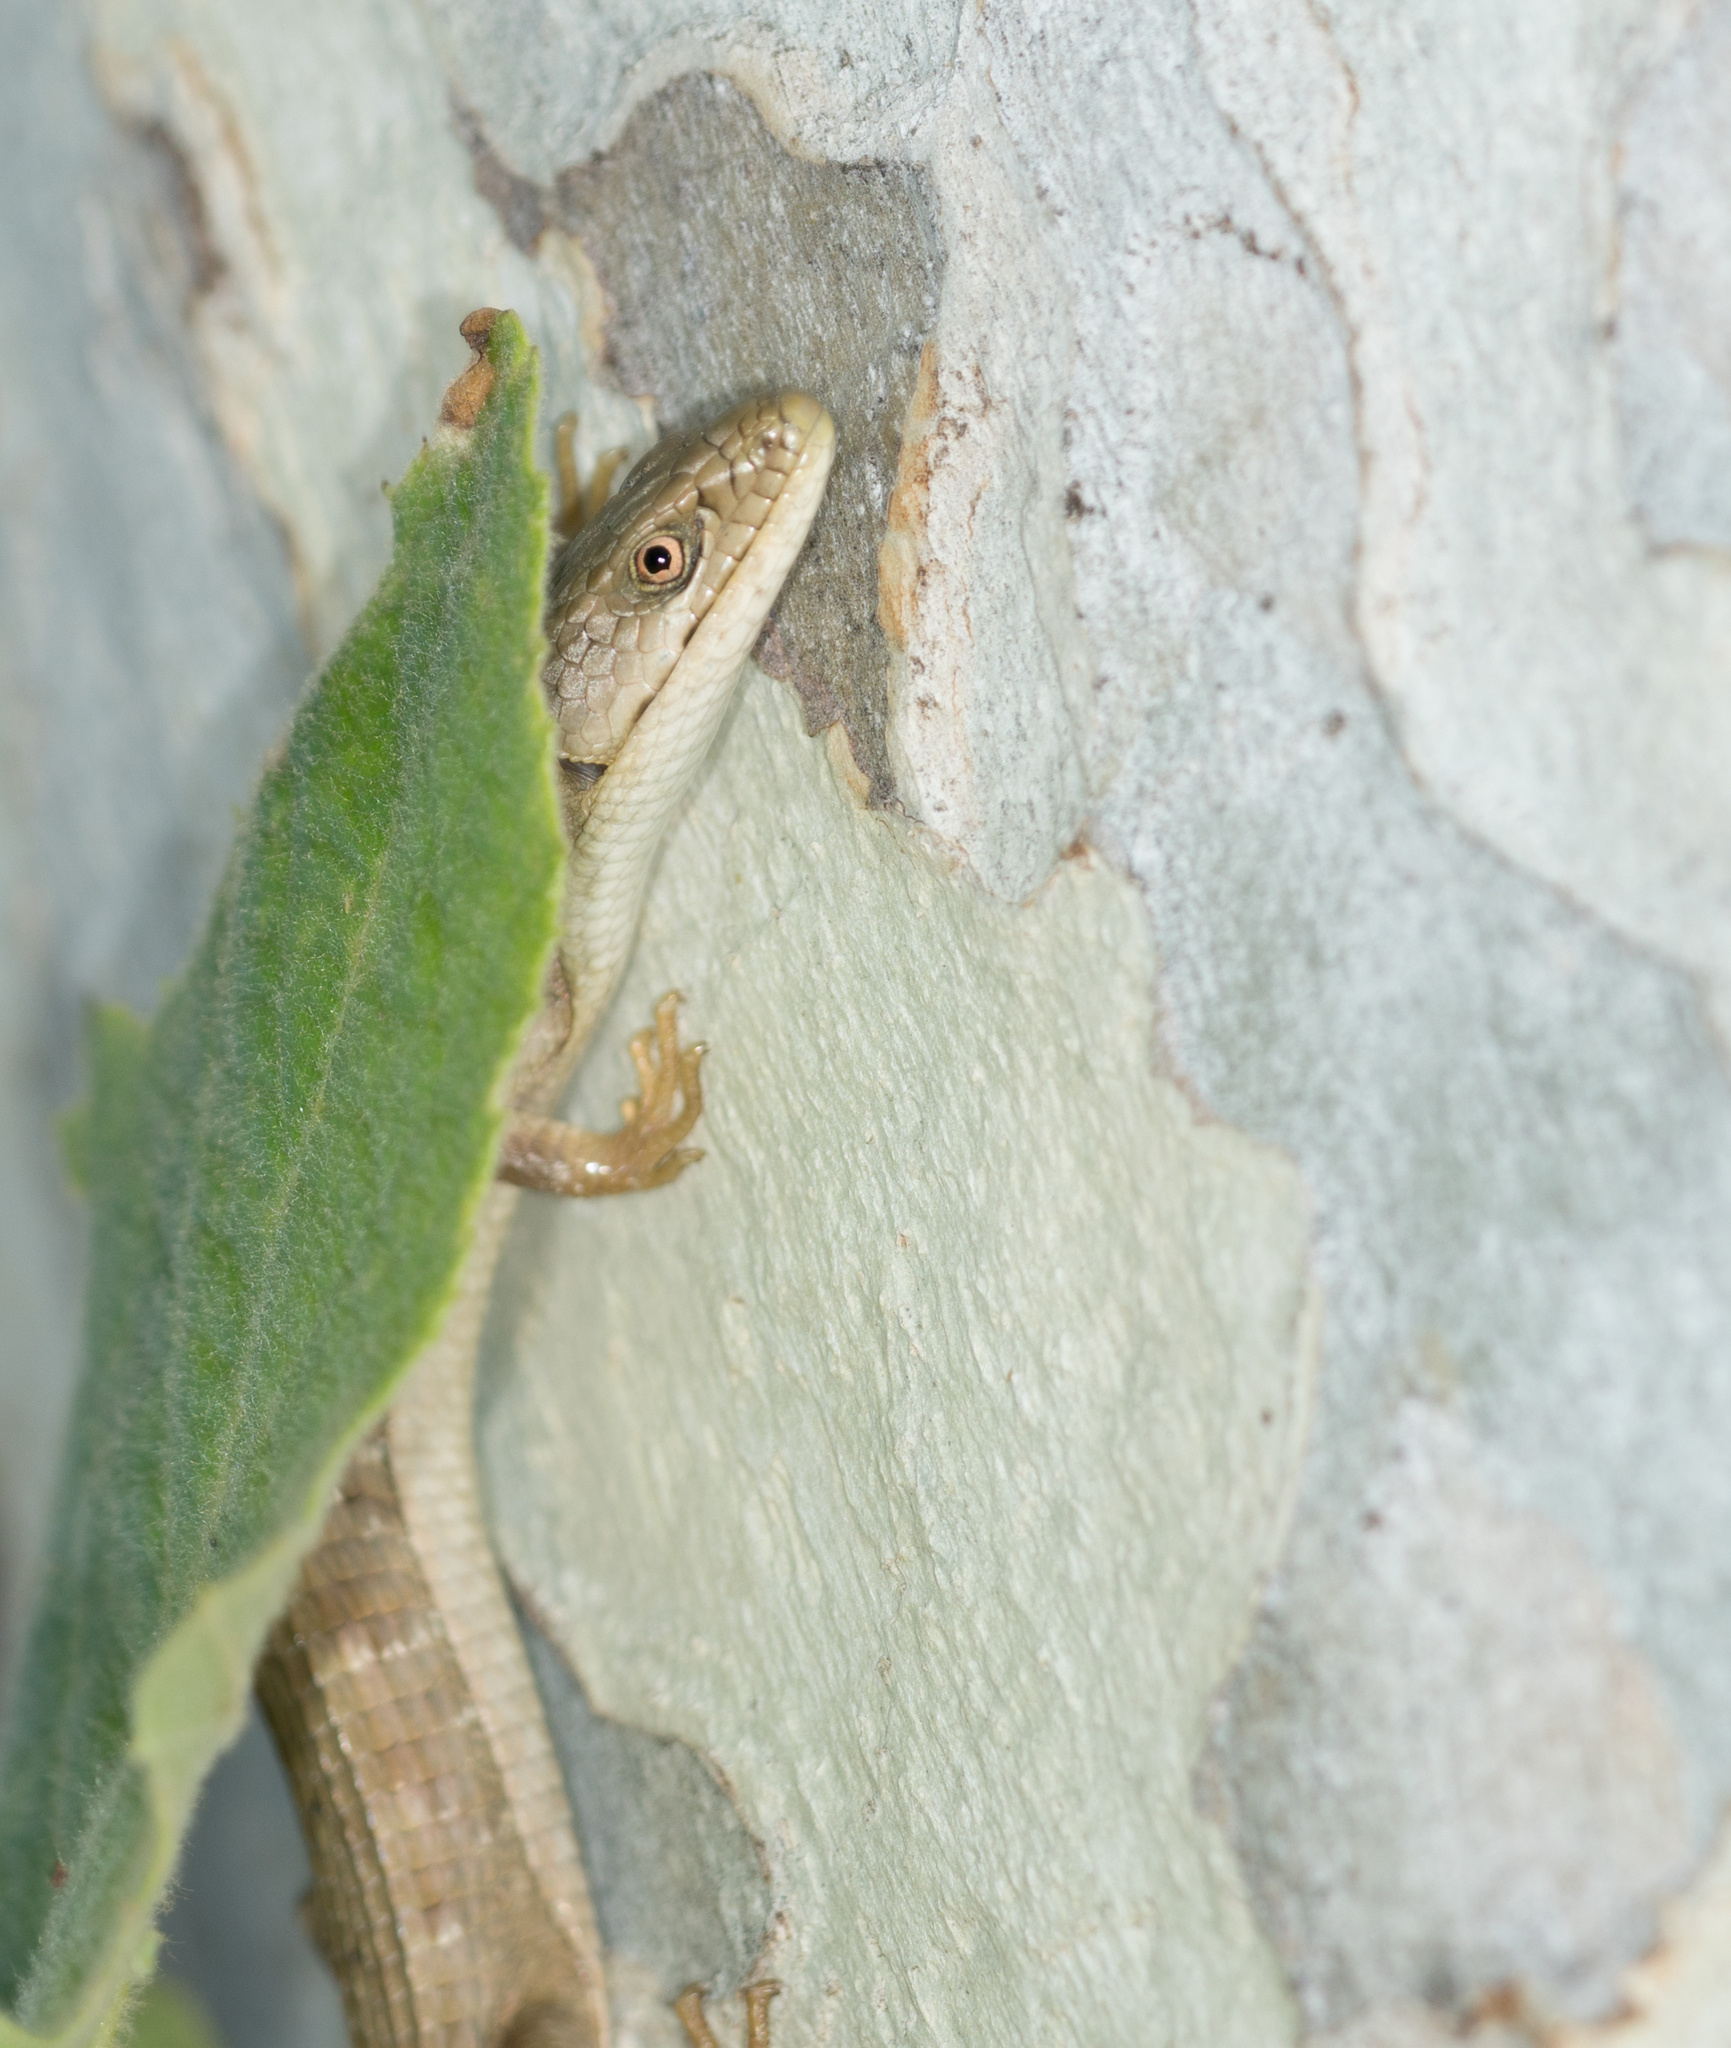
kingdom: Animalia
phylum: Chordata
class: Squamata
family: Anguidae
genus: Elgaria
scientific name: Elgaria multicarinata
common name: Southern alligator lizard
